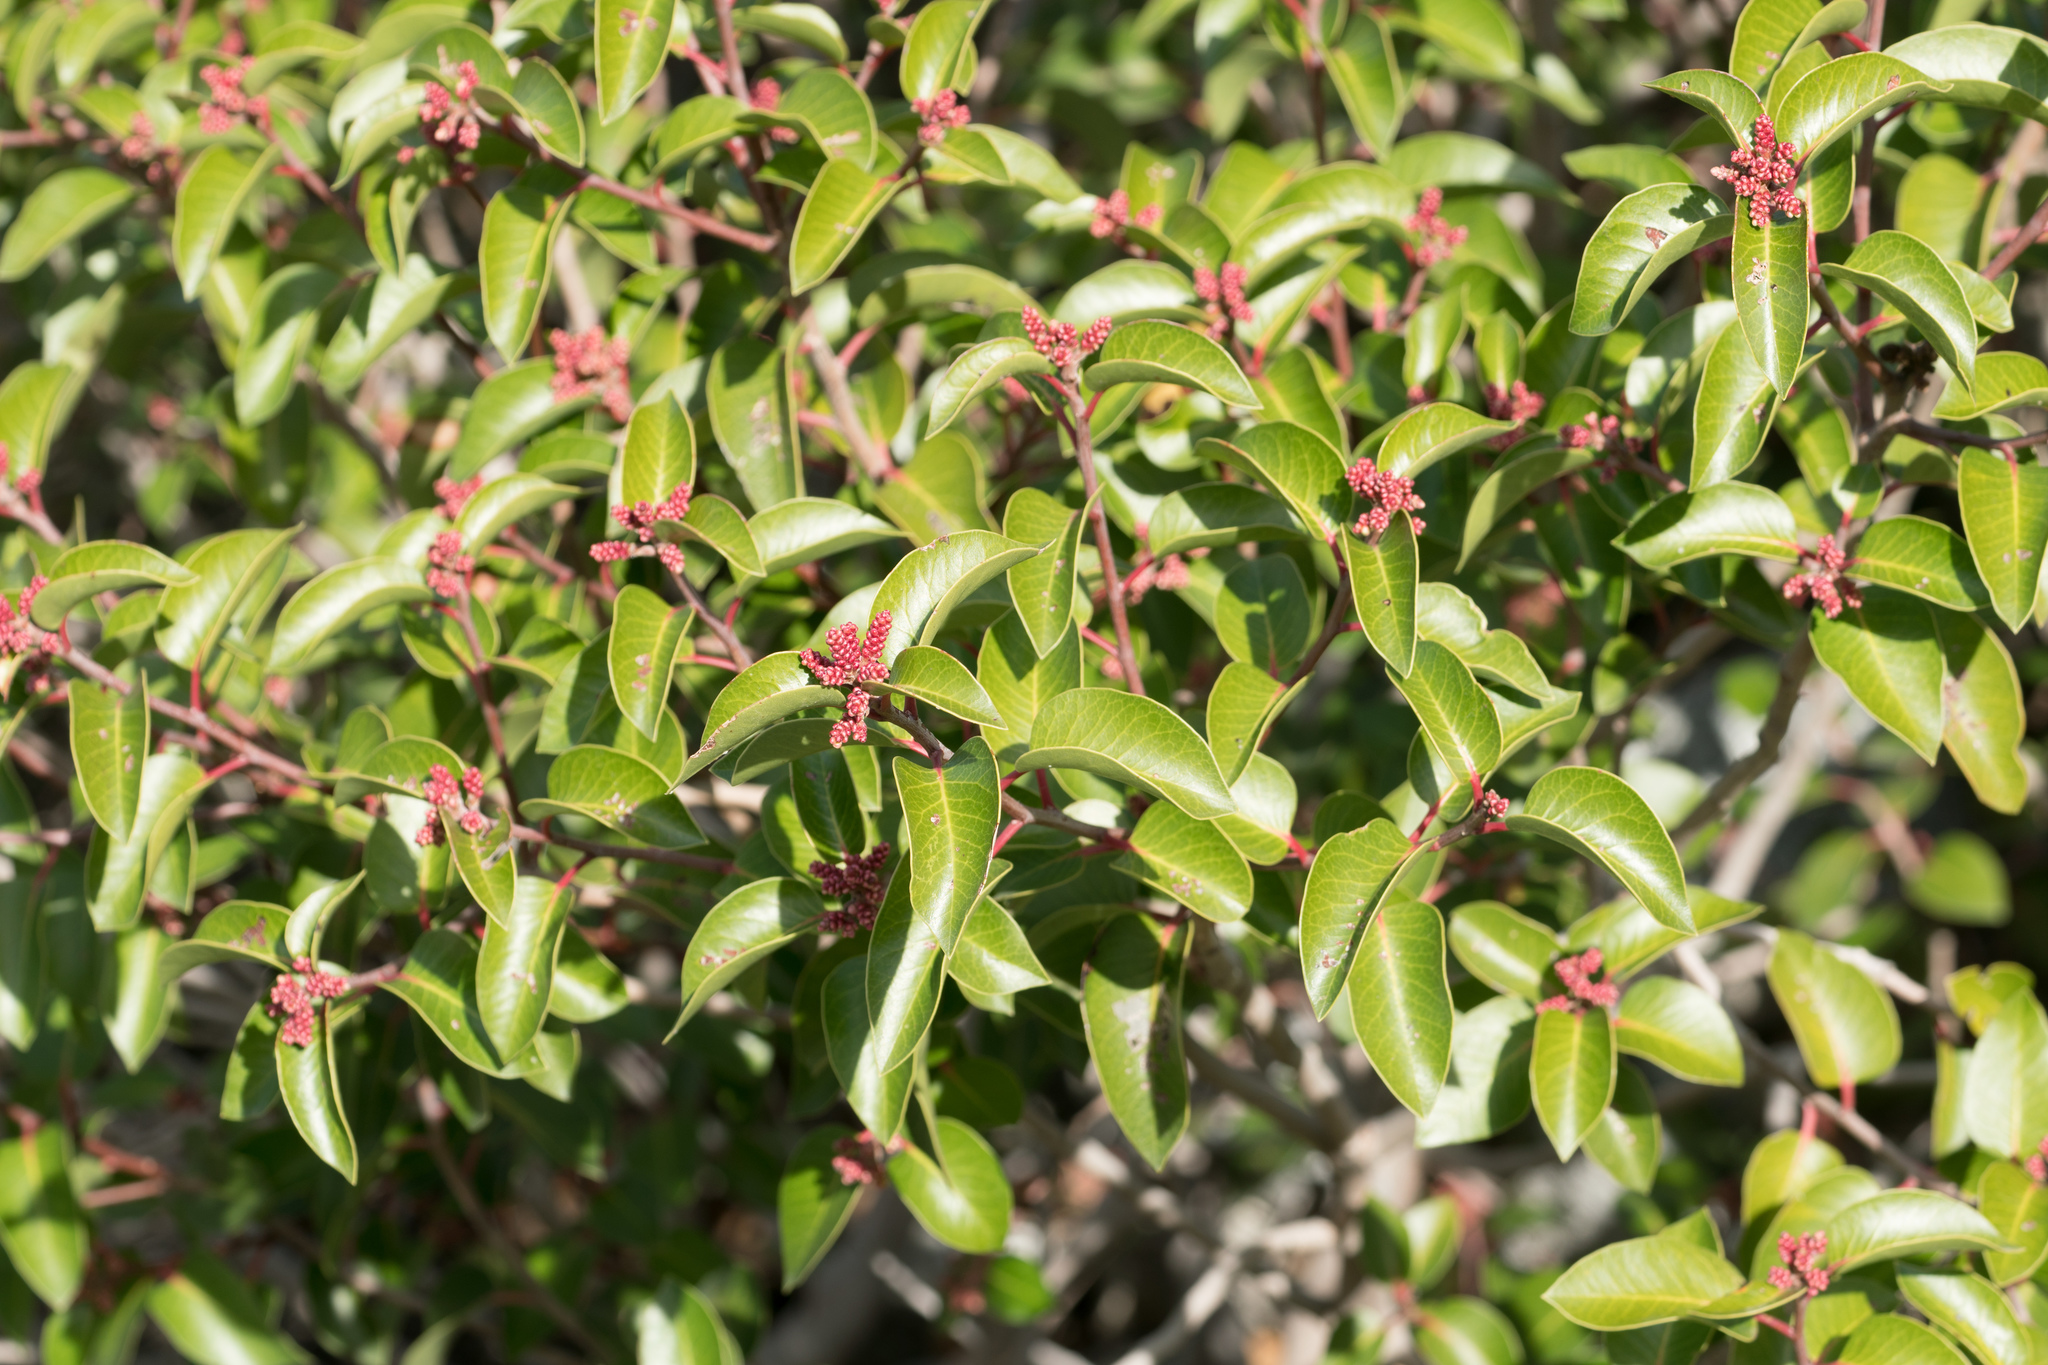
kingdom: Plantae
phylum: Tracheophyta
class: Magnoliopsida
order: Sapindales
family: Anacardiaceae
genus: Rhus
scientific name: Rhus ovata
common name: Sugar sumac
